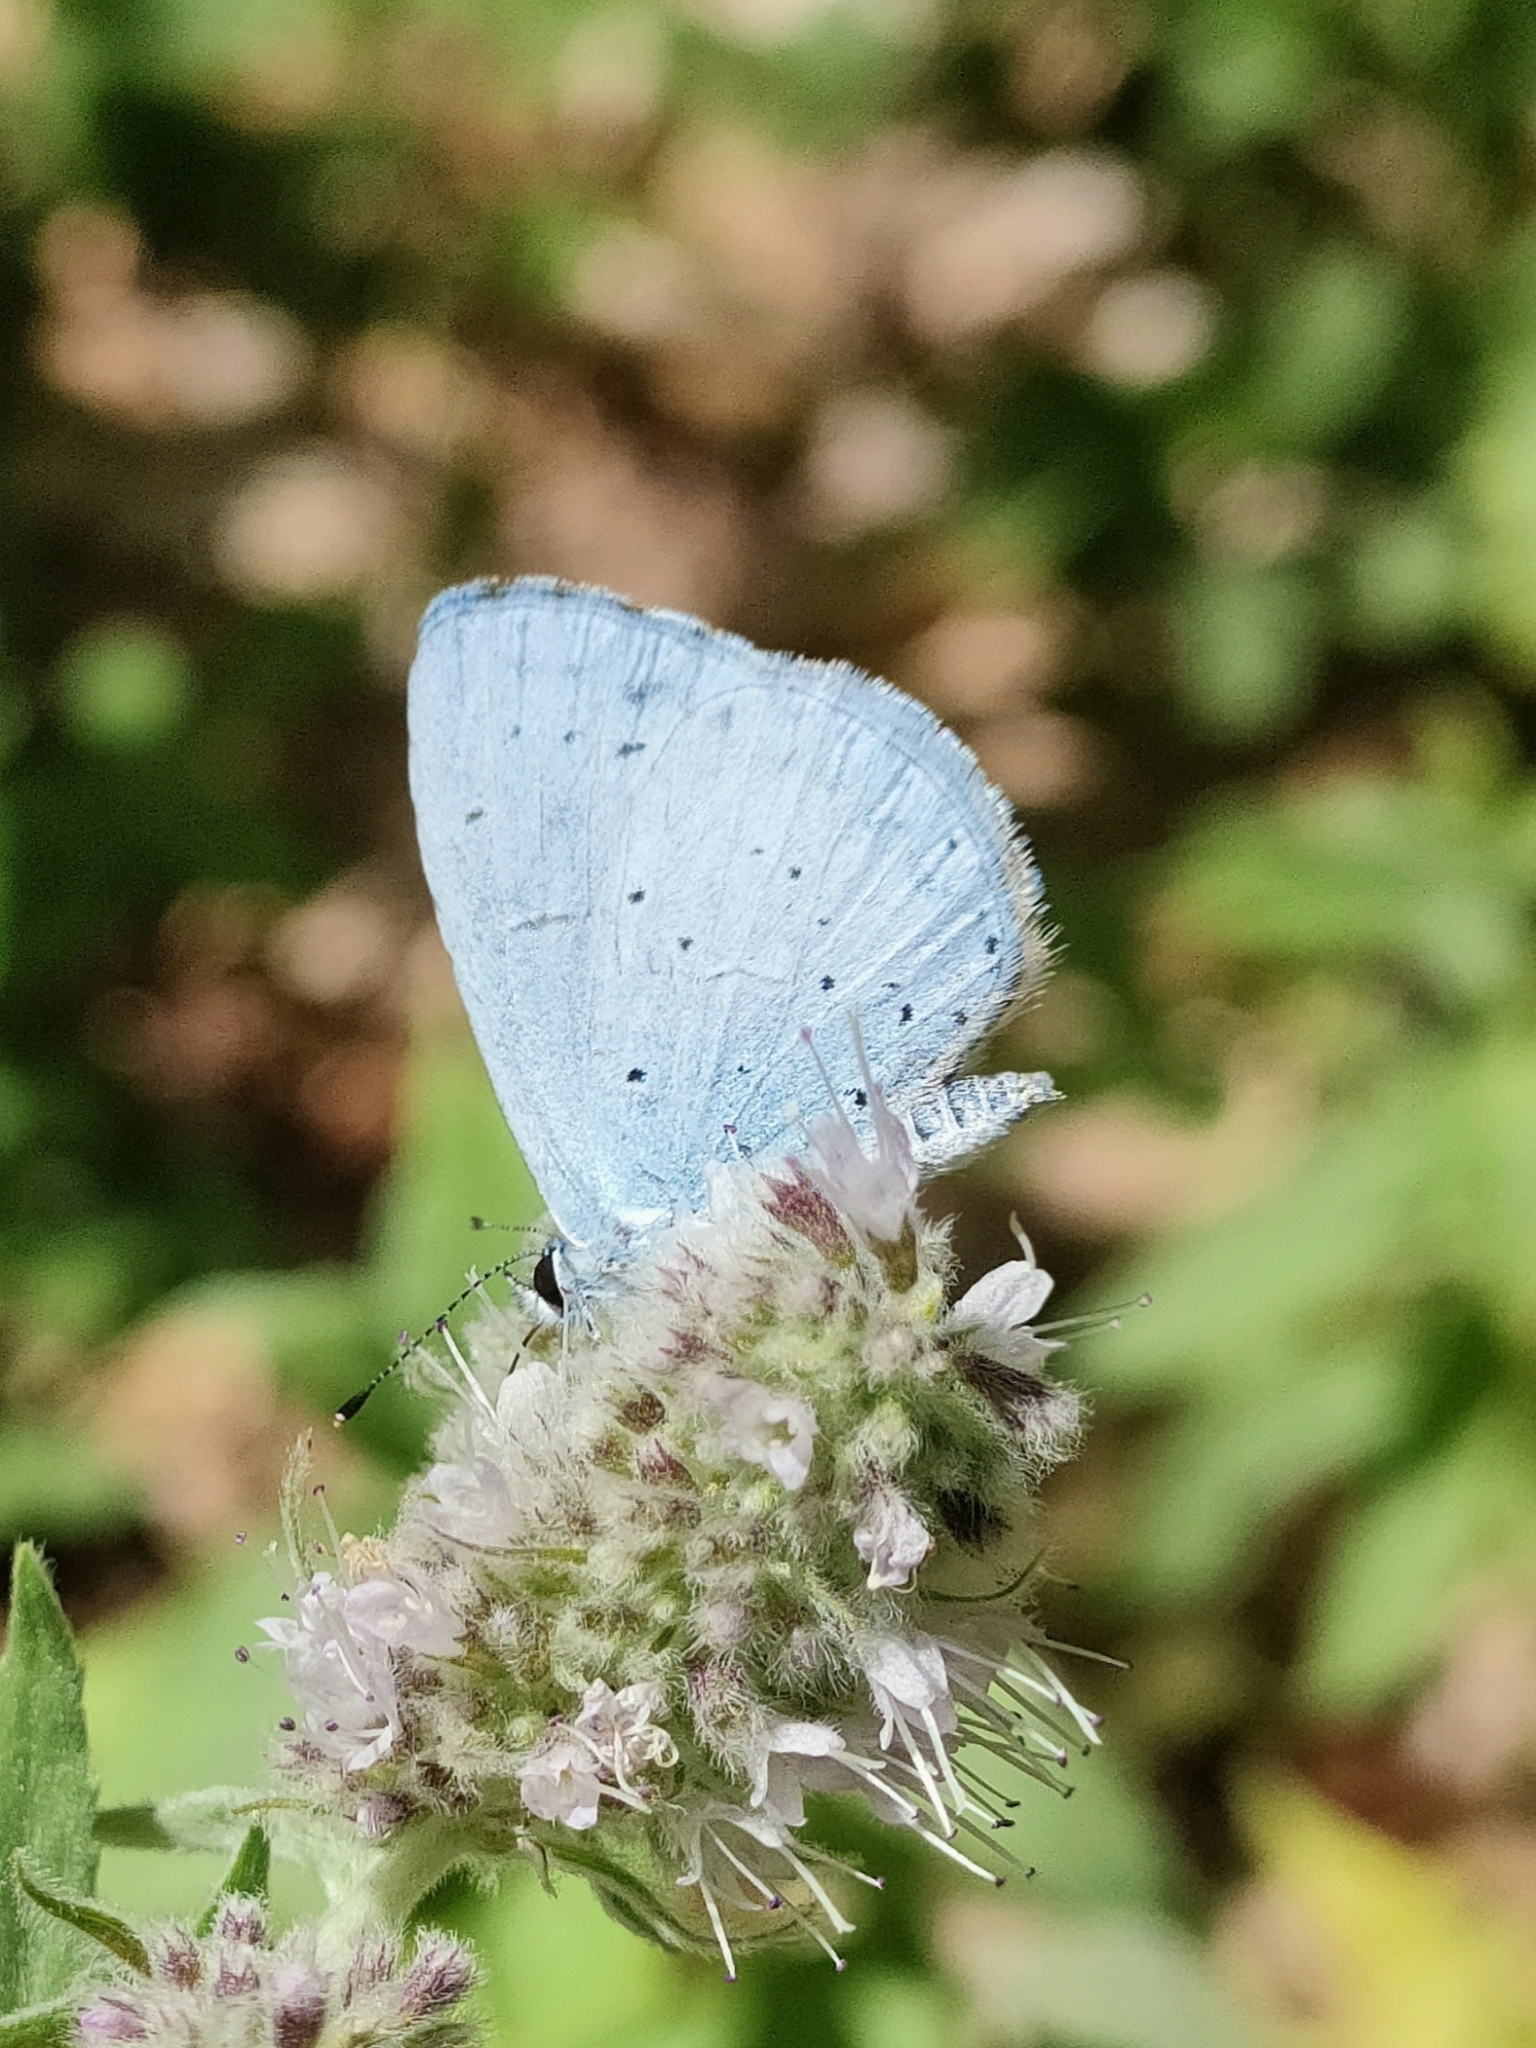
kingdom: Animalia
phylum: Arthropoda
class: Insecta
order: Lepidoptera
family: Lycaenidae
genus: Celastrina
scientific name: Celastrina argiolus
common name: Holly blue
